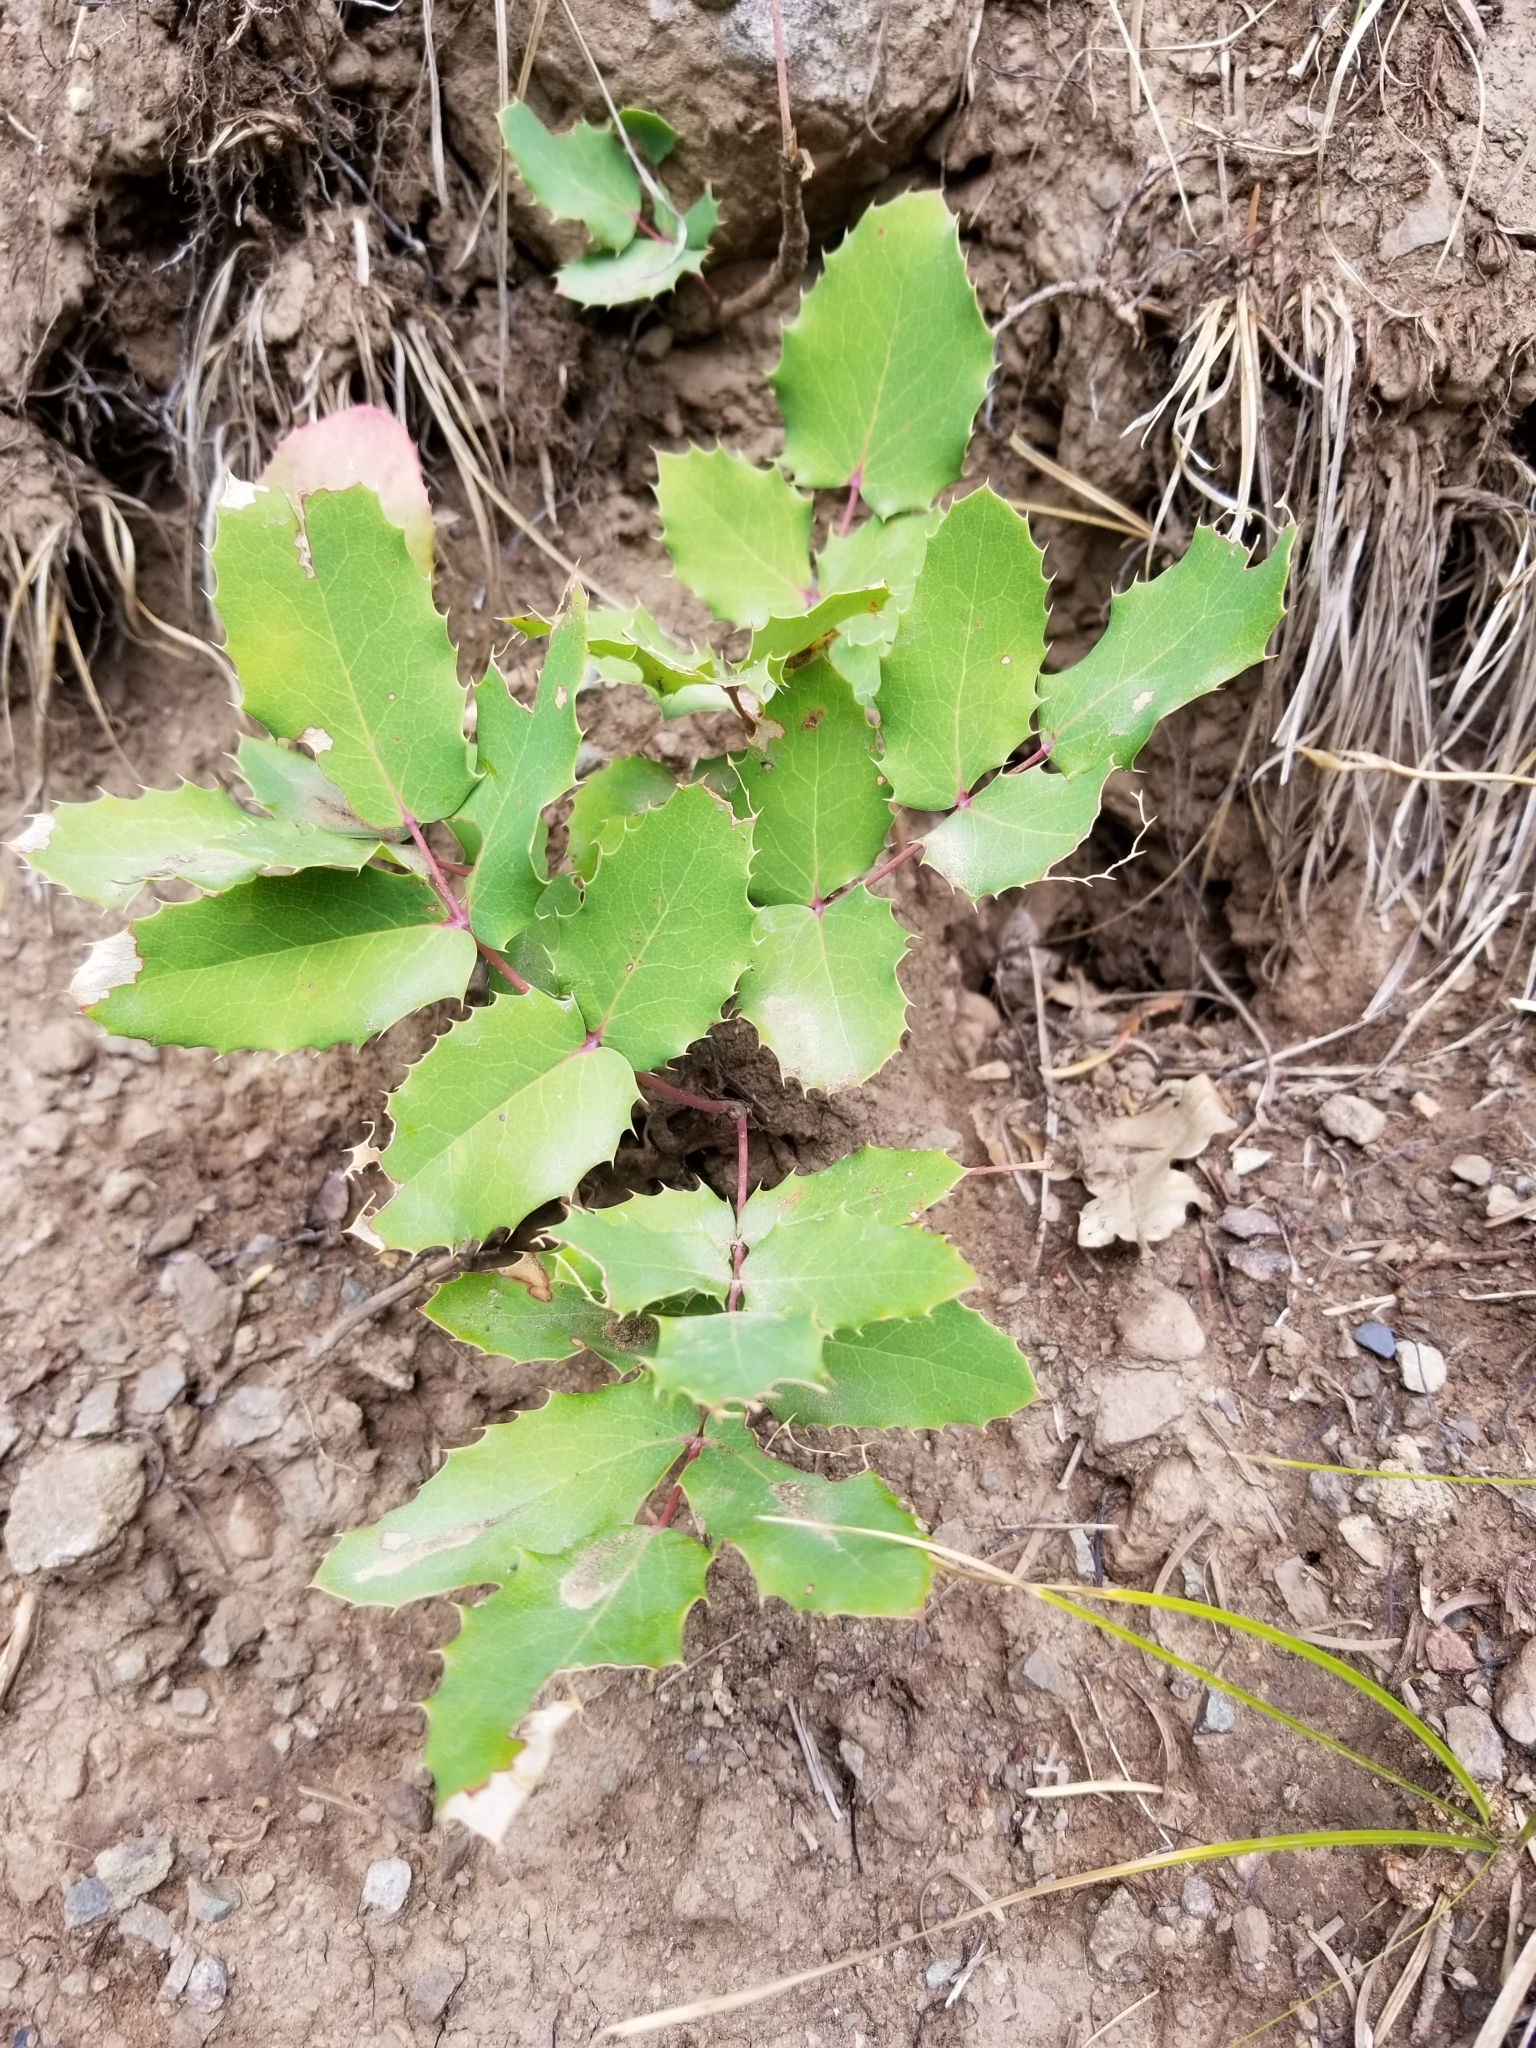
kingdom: Plantae
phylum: Tracheophyta
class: Magnoliopsida
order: Ranunculales
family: Berberidaceae
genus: Mahonia
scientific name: Mahonia repens
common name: Creeping oregon-grape
